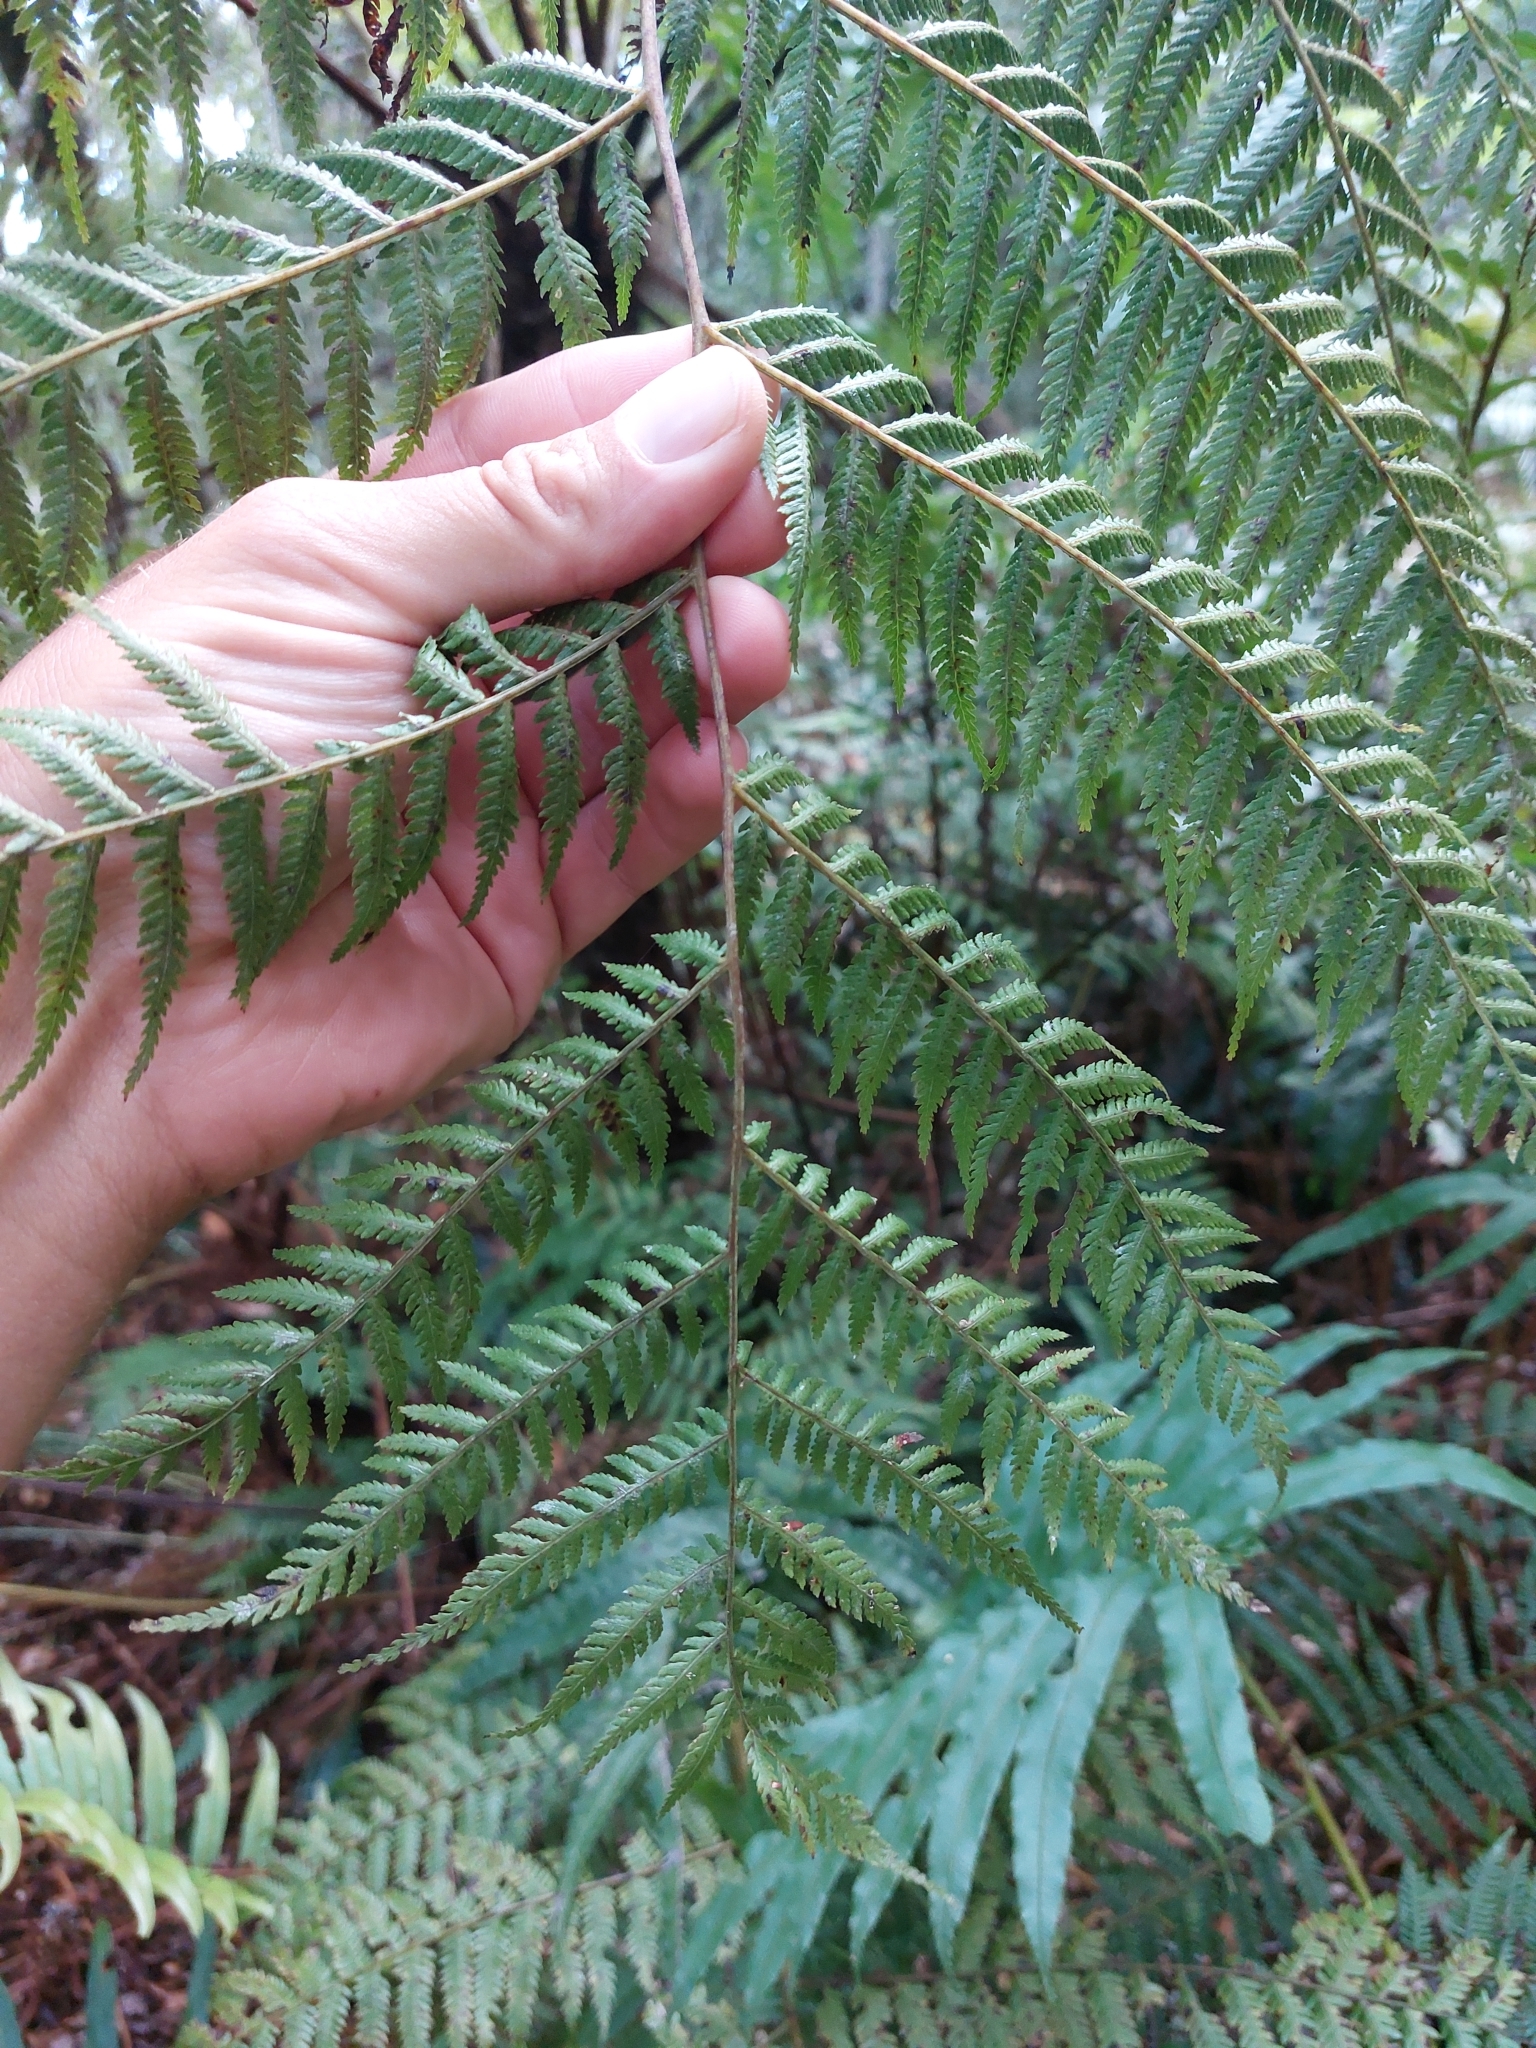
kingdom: Plantae
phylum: Tracheophyta
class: Polypodiopsida
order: Cyatheales
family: Cyatheaceae
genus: Gymnosphaera
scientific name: Gymnosphaera capensis
